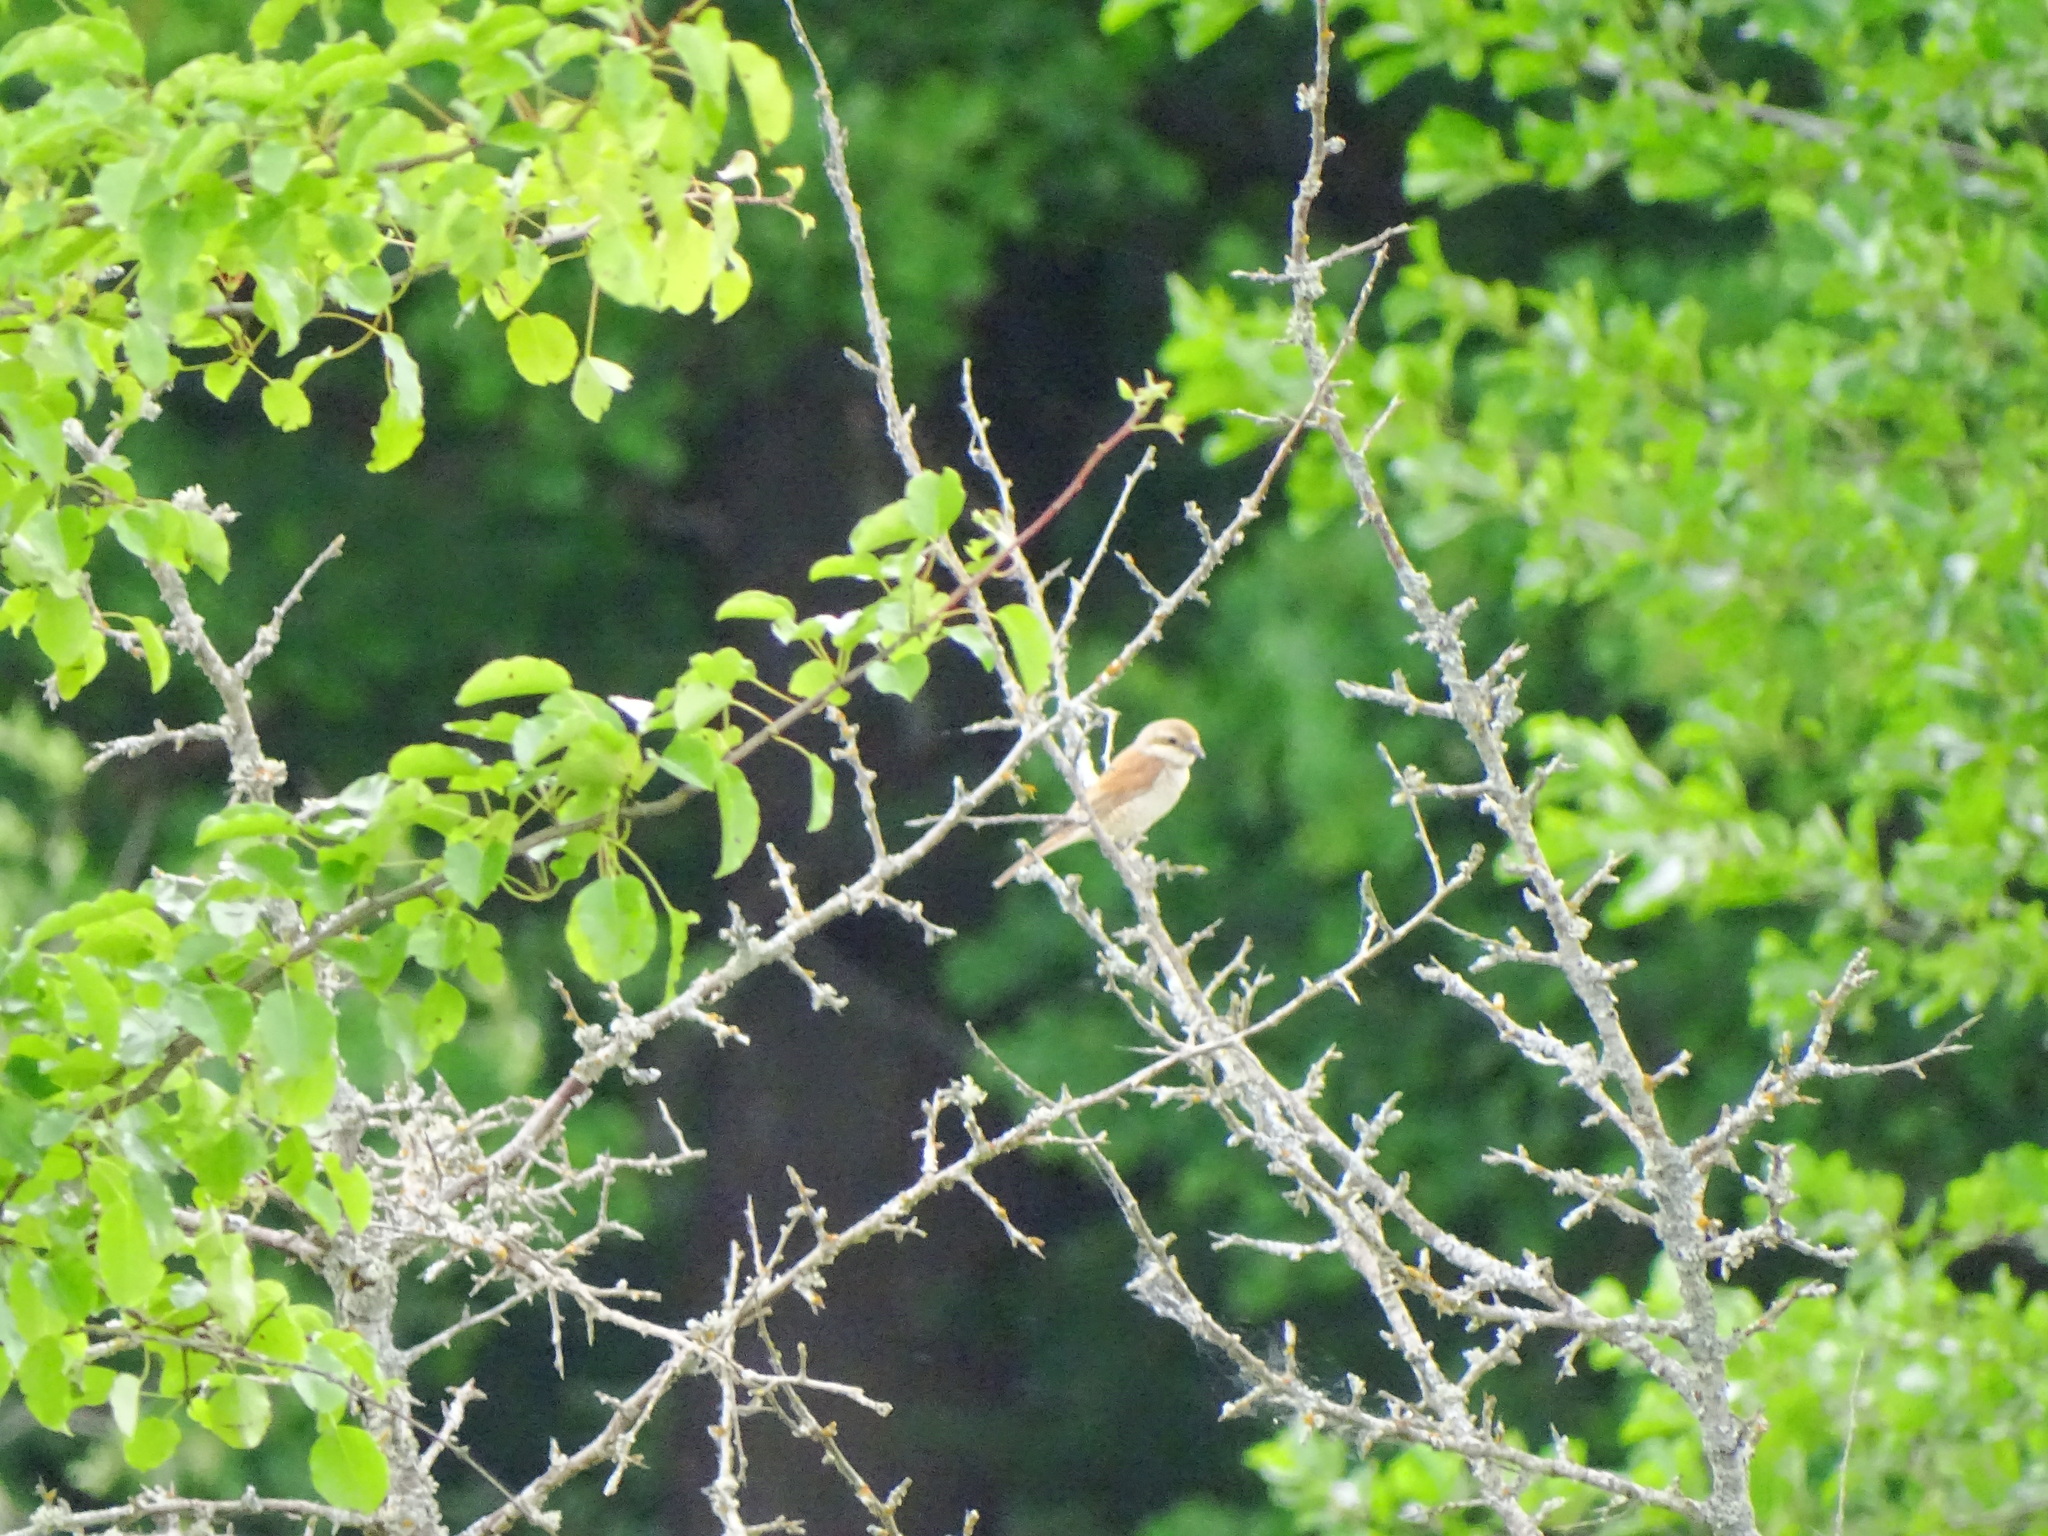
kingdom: Animalia
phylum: Chordata
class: Aves
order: Passeriformes
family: Laniidae
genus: Lanius
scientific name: Lanius collurio
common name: Red-backed shrike
